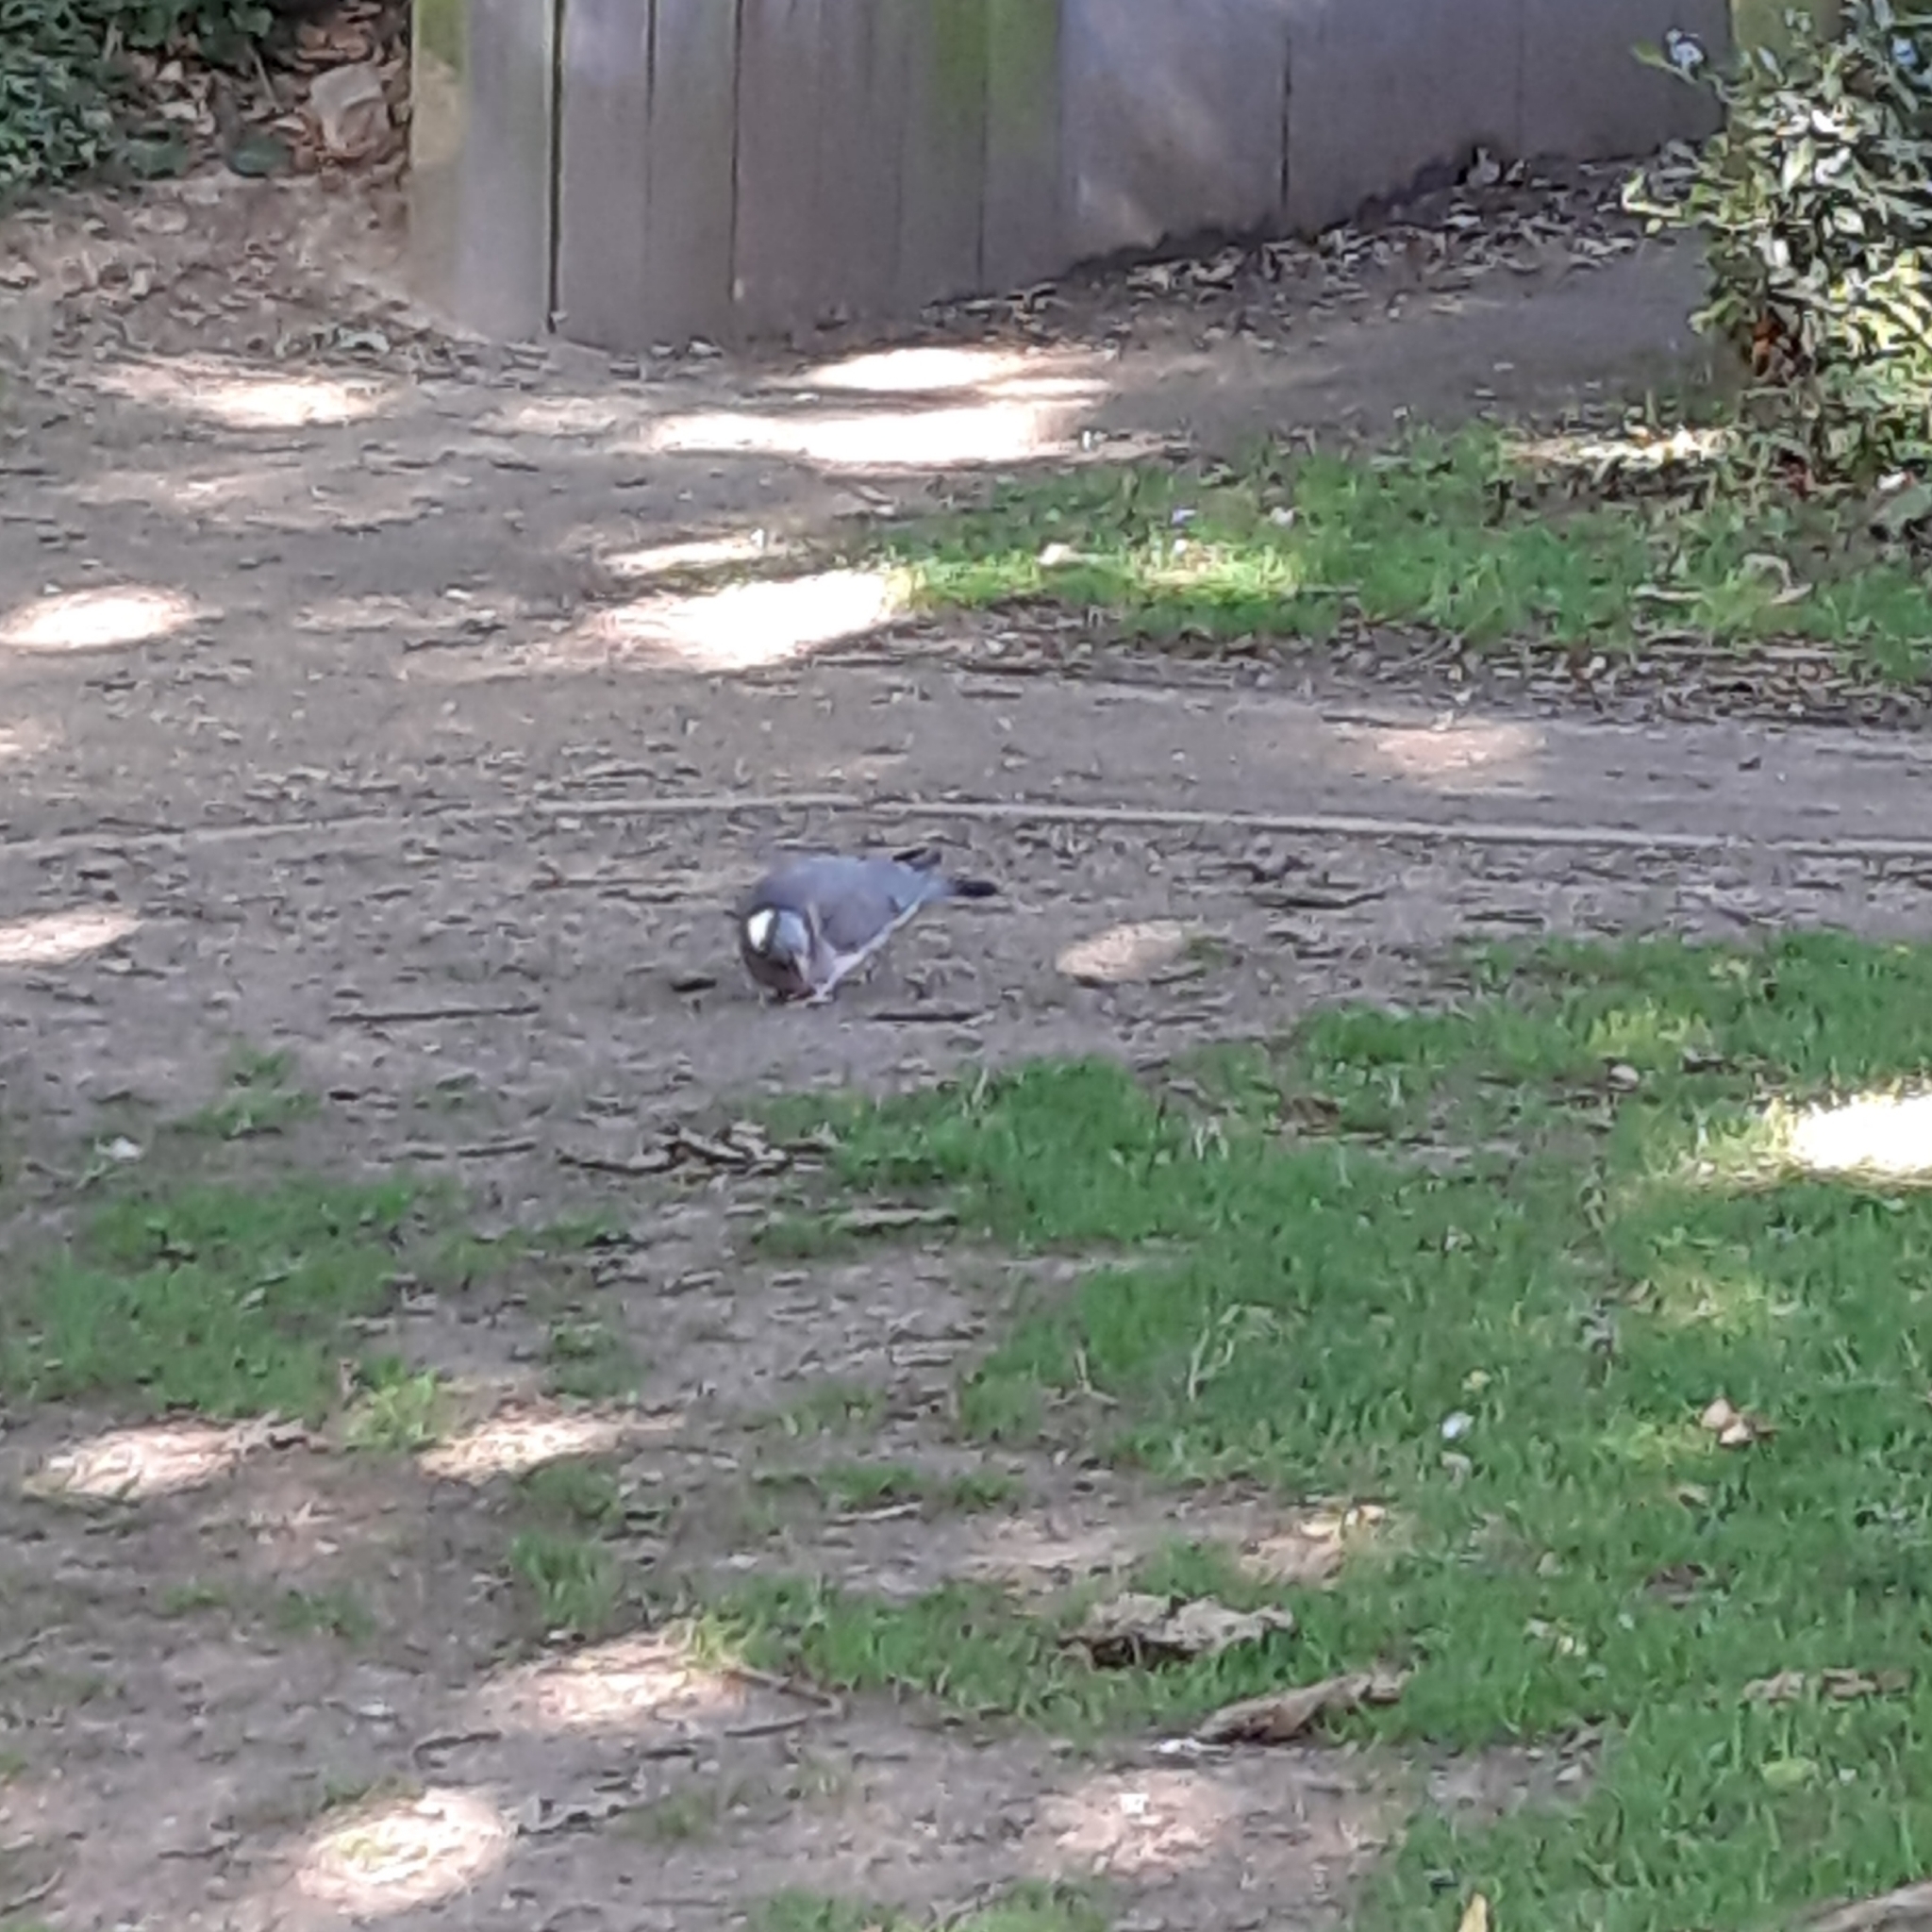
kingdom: Animalia
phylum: Chordata
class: Aves
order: Columbiformes
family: Columbidae
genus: Columba
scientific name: Columba palumbus
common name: Common wood pigeon
